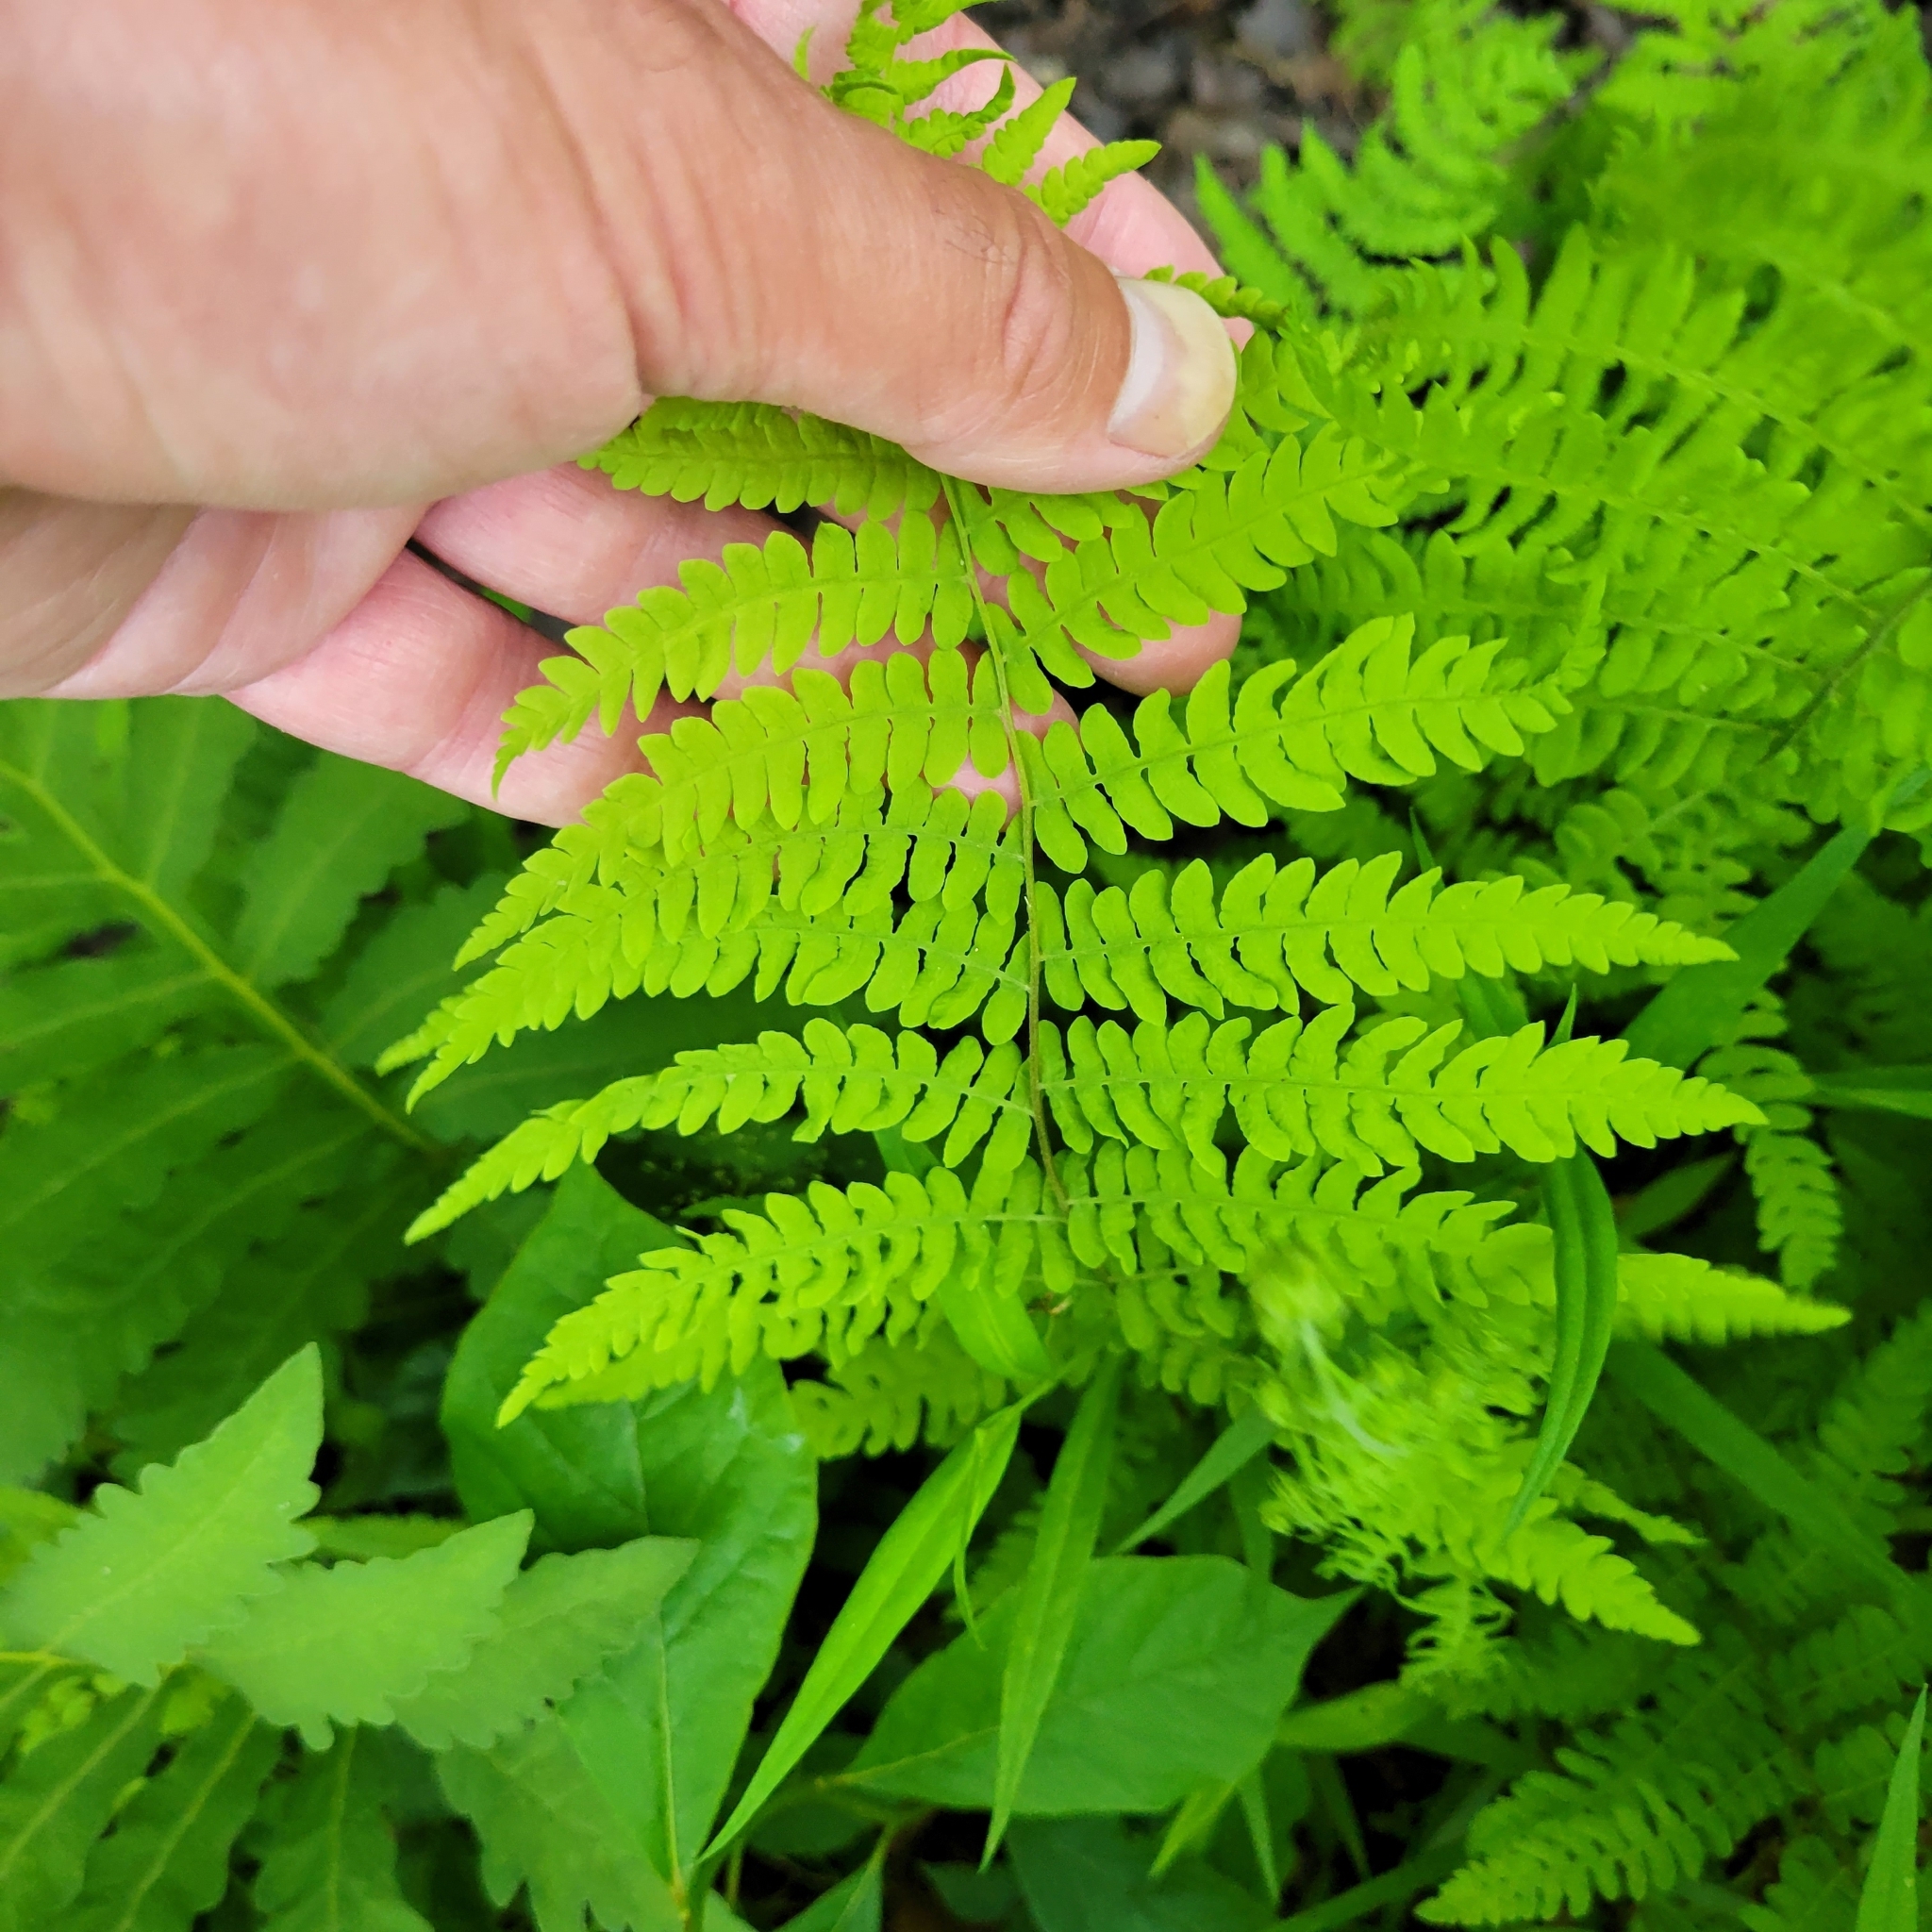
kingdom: Plantae
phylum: Tracheophyta
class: Polypodiopsida
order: Polypodiales
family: Thelypteridaceae
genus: Thelypteris
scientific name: Thelypteris palustris
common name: Marsh fern
